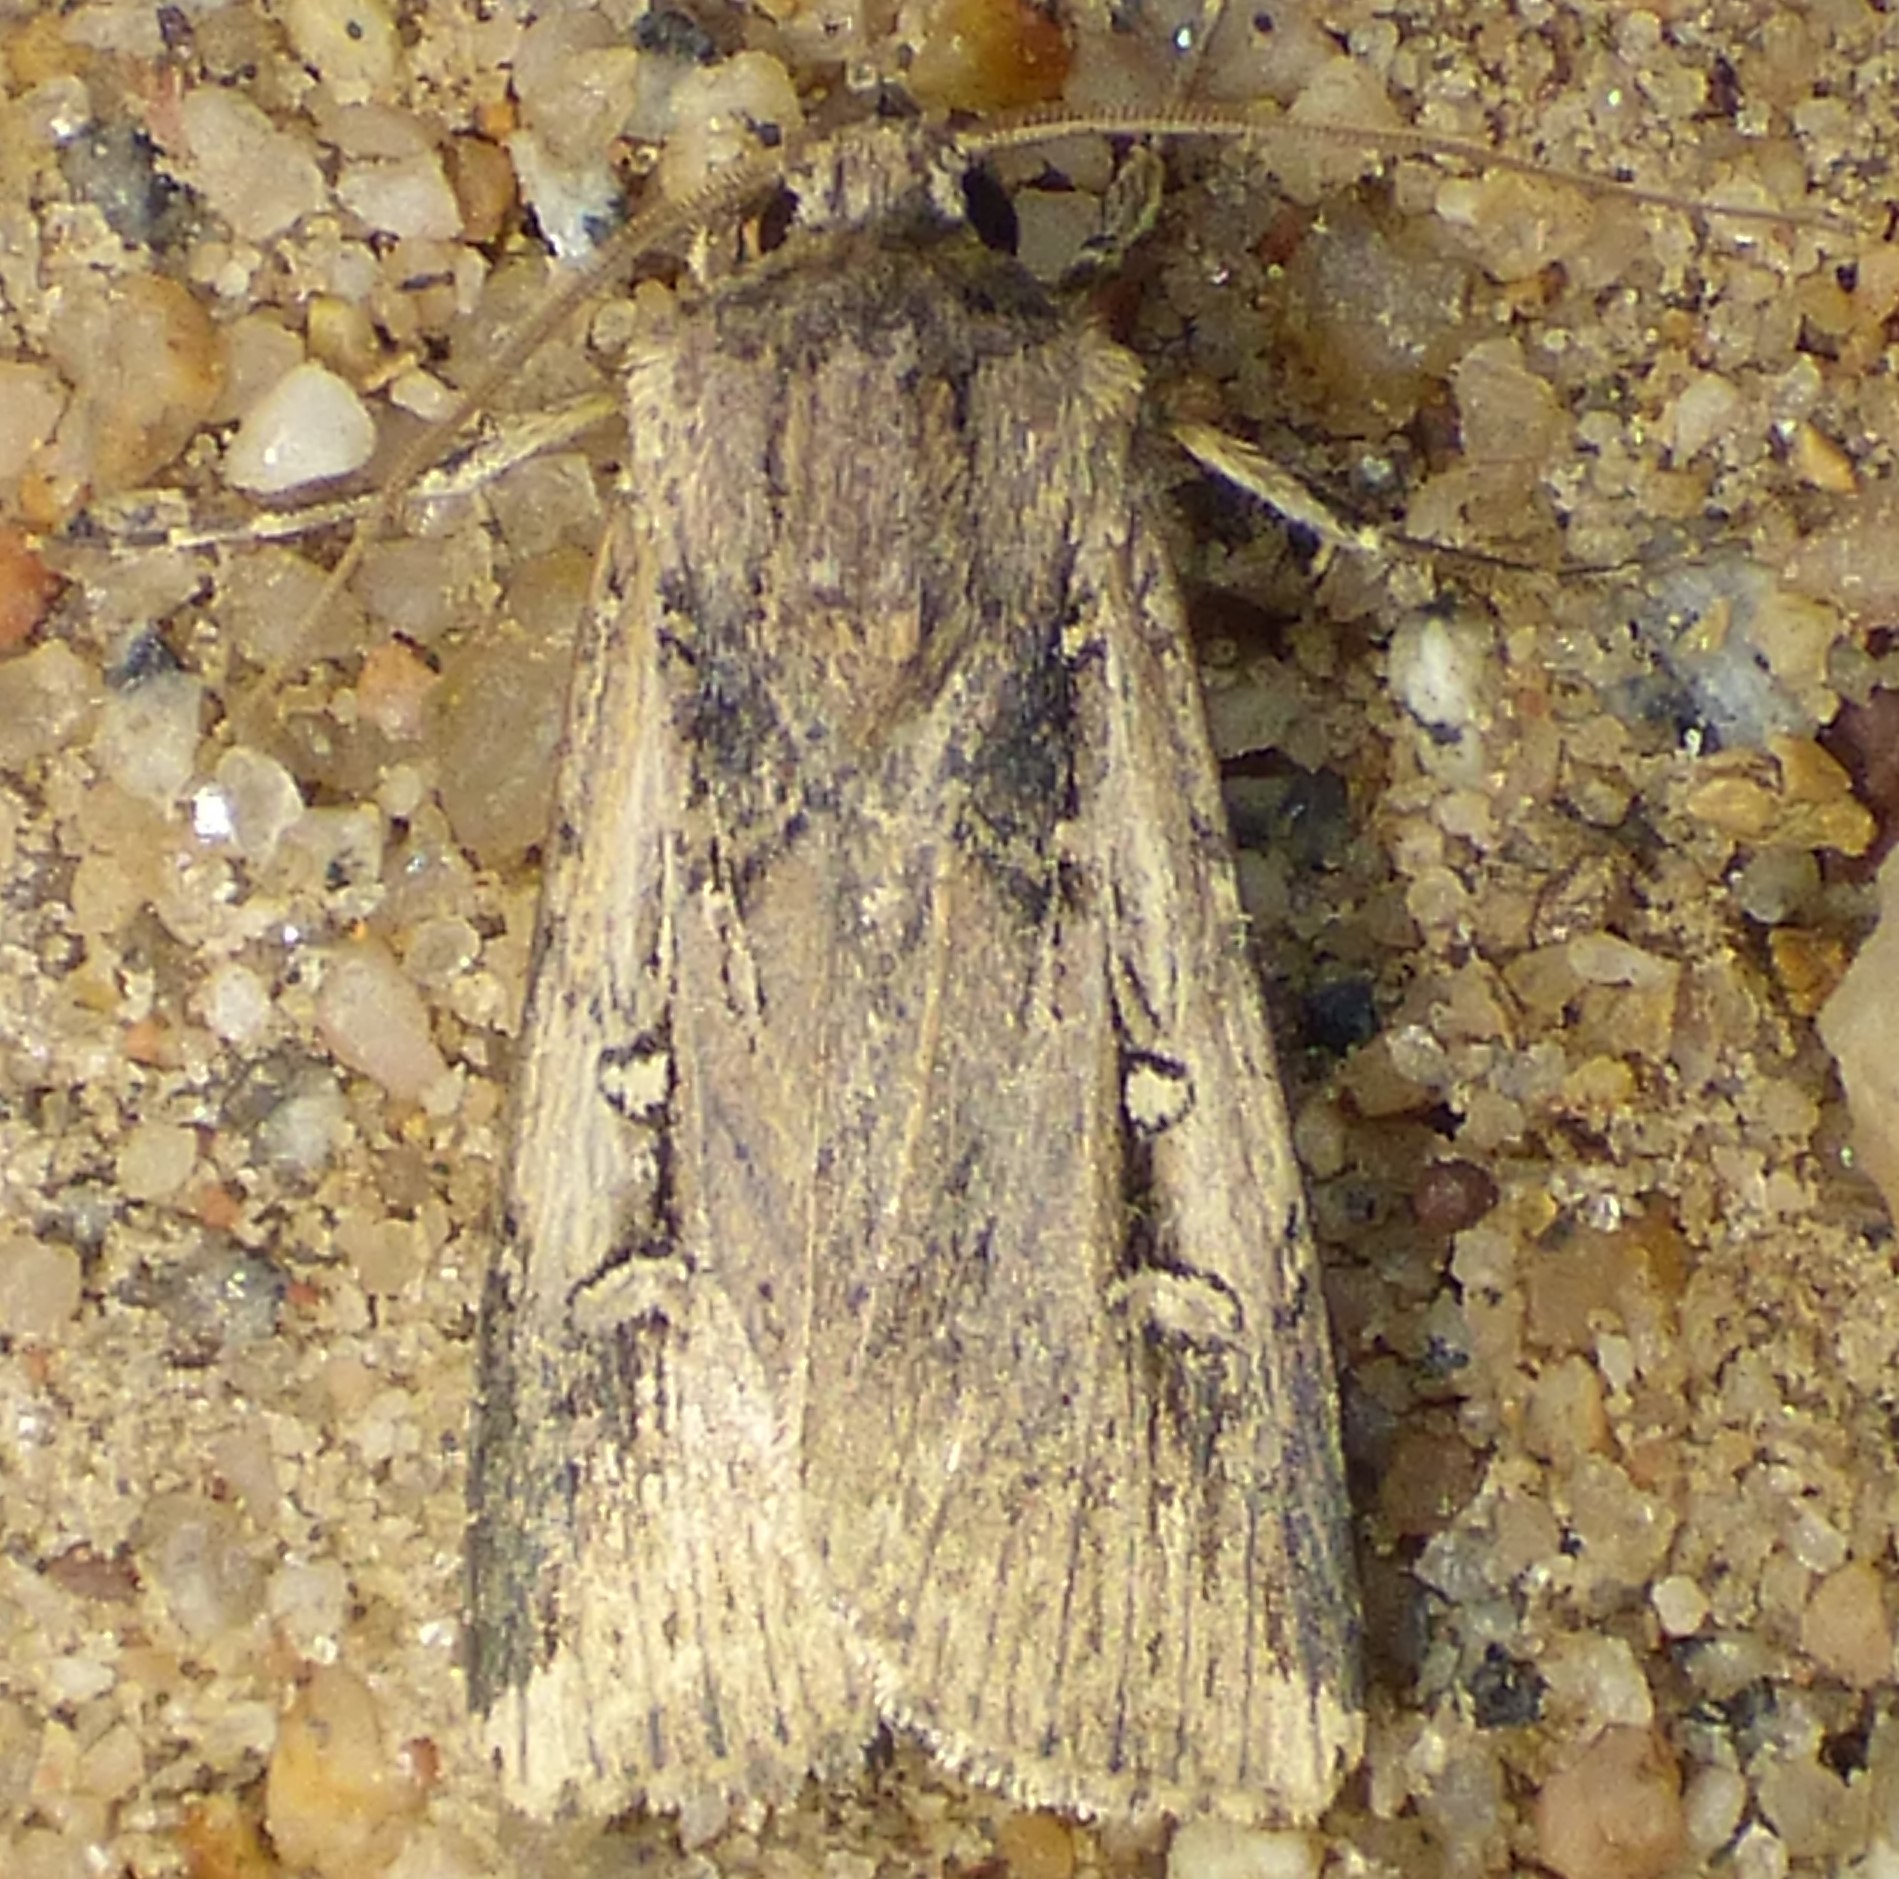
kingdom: Animalia
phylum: Arthropoda
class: Insecta
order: Lepidoptera
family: Noctuidae
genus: Feltia
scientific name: Feltia subterranea
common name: Granulate cutworm
